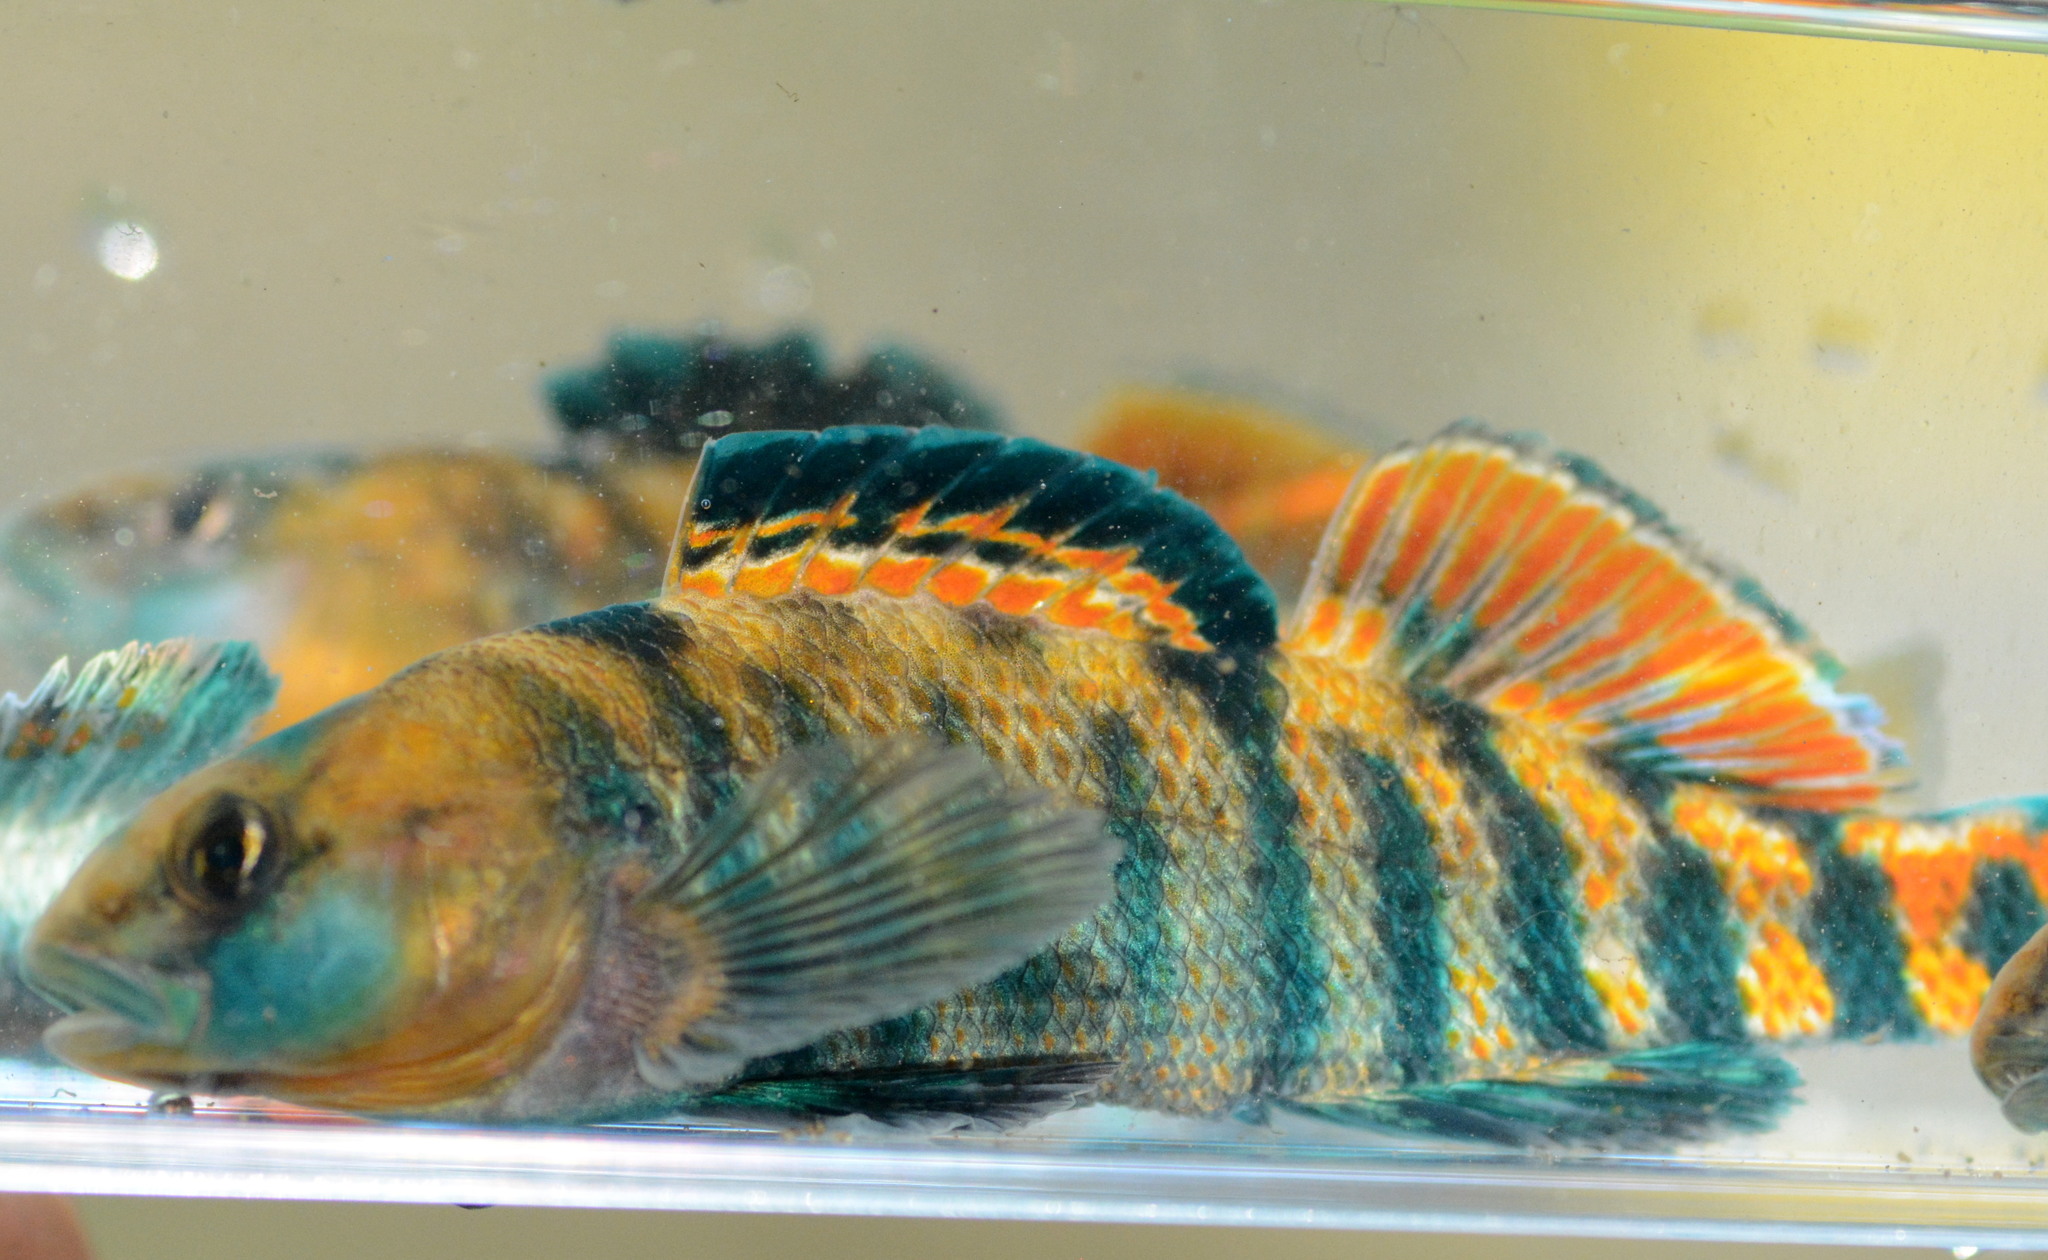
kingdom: Animalia
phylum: Chordata
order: Perciformes
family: Percidae
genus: Etheostoma
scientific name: Etheostoma caeruleum
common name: Rainbow darter
